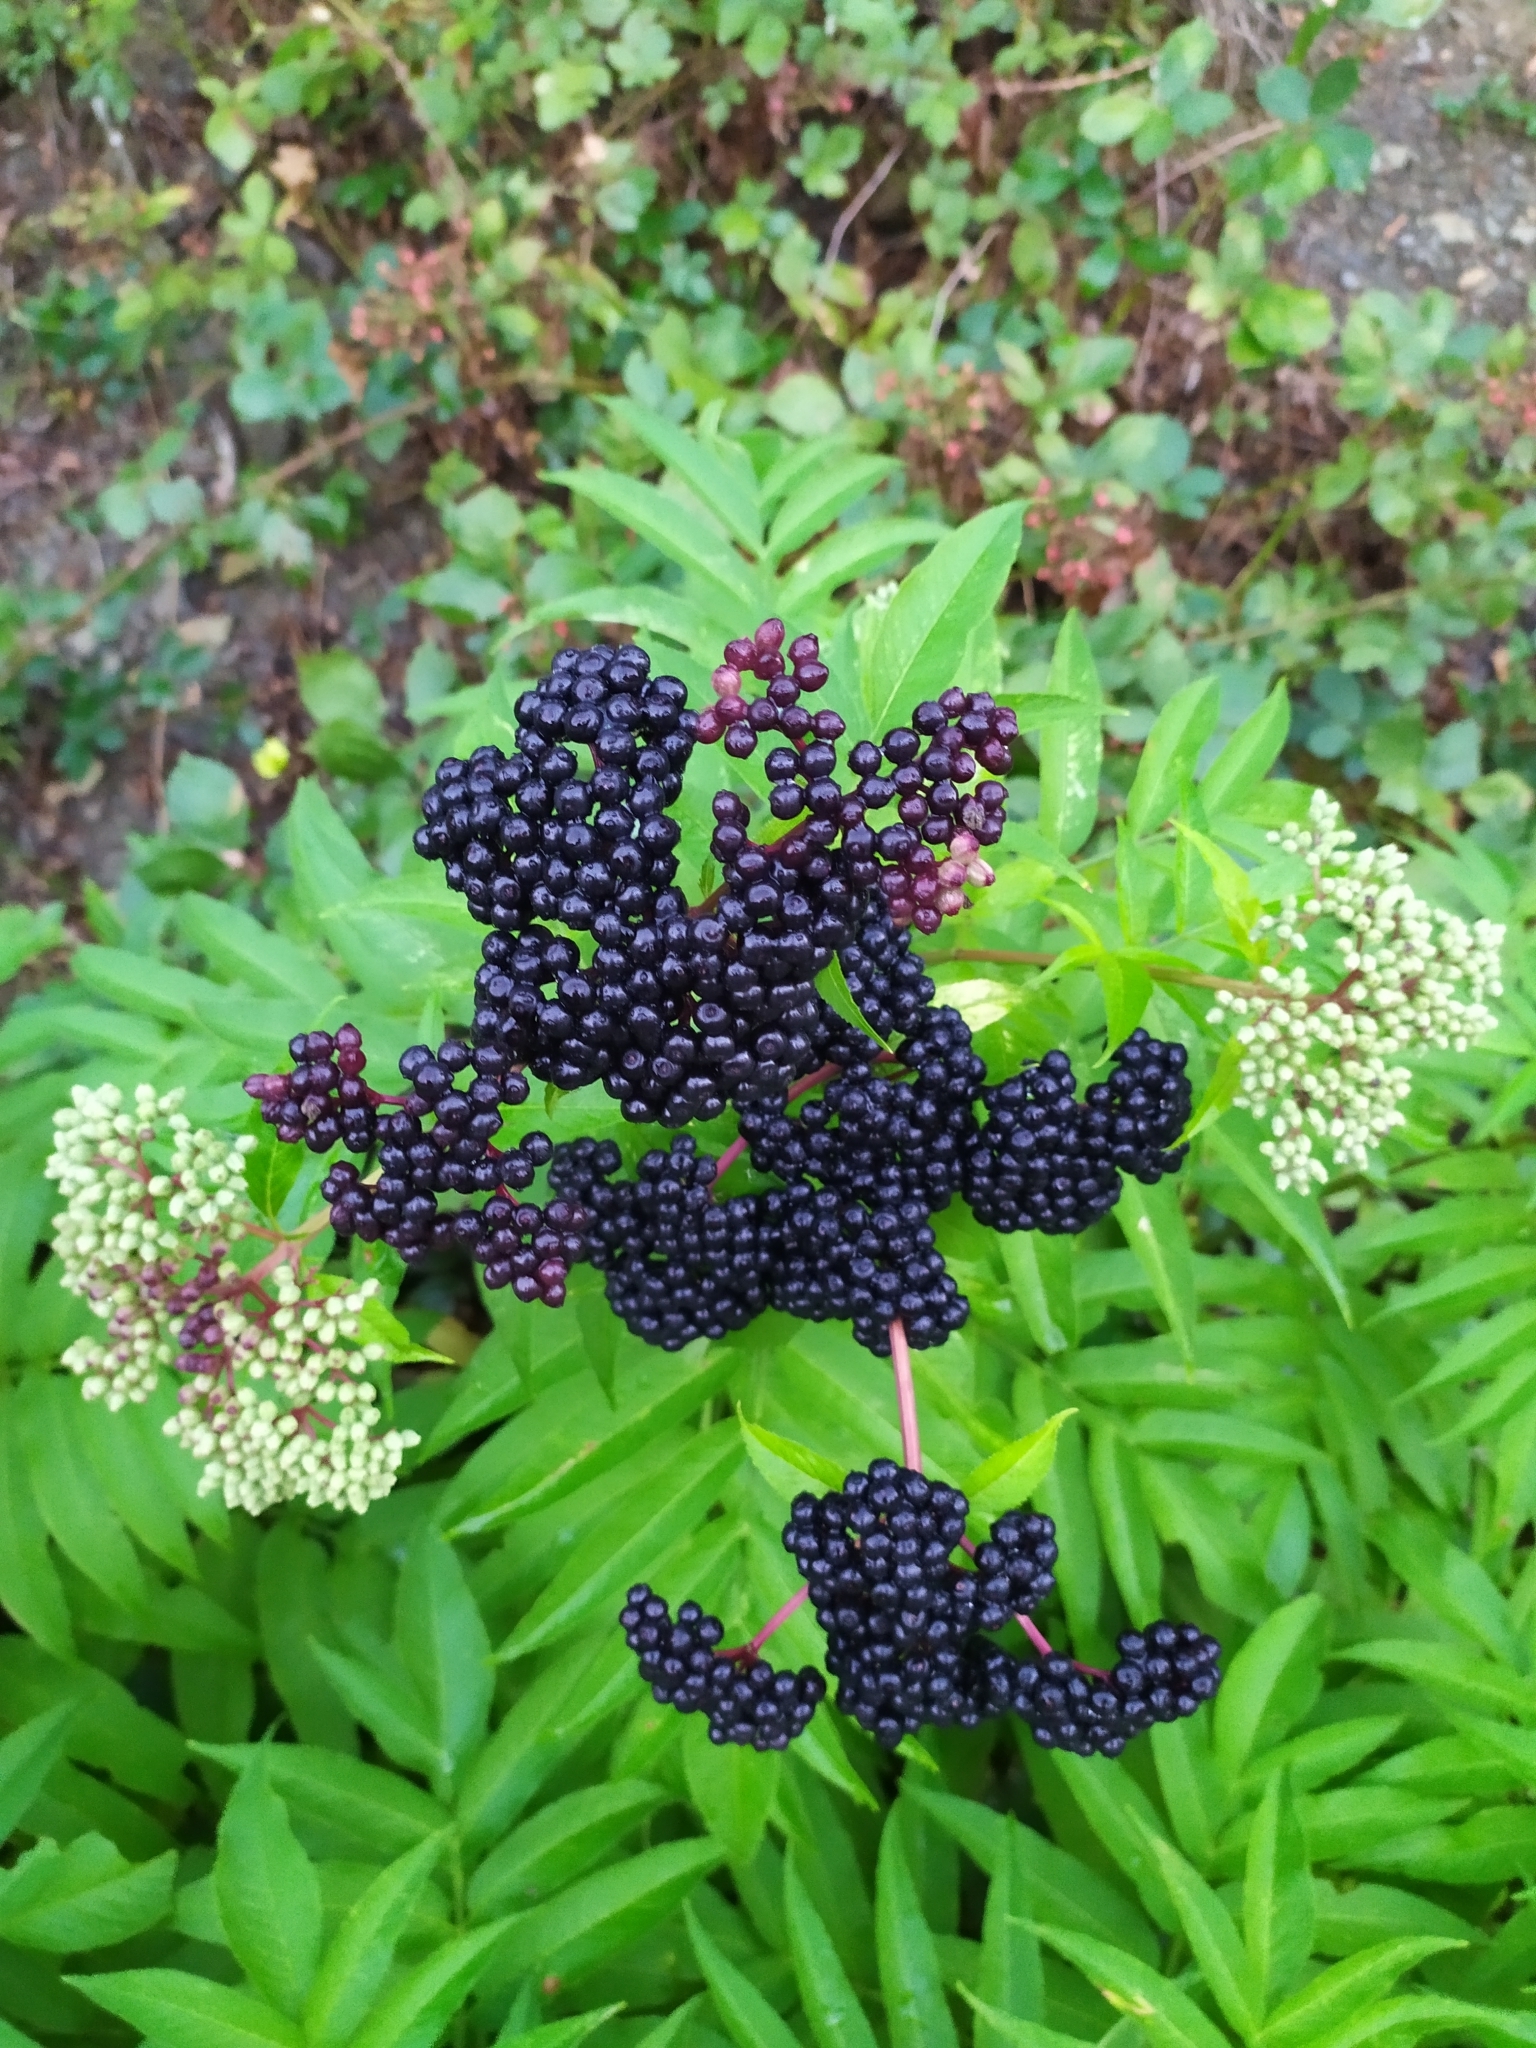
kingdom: Plantae
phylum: Tracheophyta
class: Magnoliopsida
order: Dipsacales
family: Viburnaceae
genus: Sambucus
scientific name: Sambucus ebulus
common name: Dwarf elder
